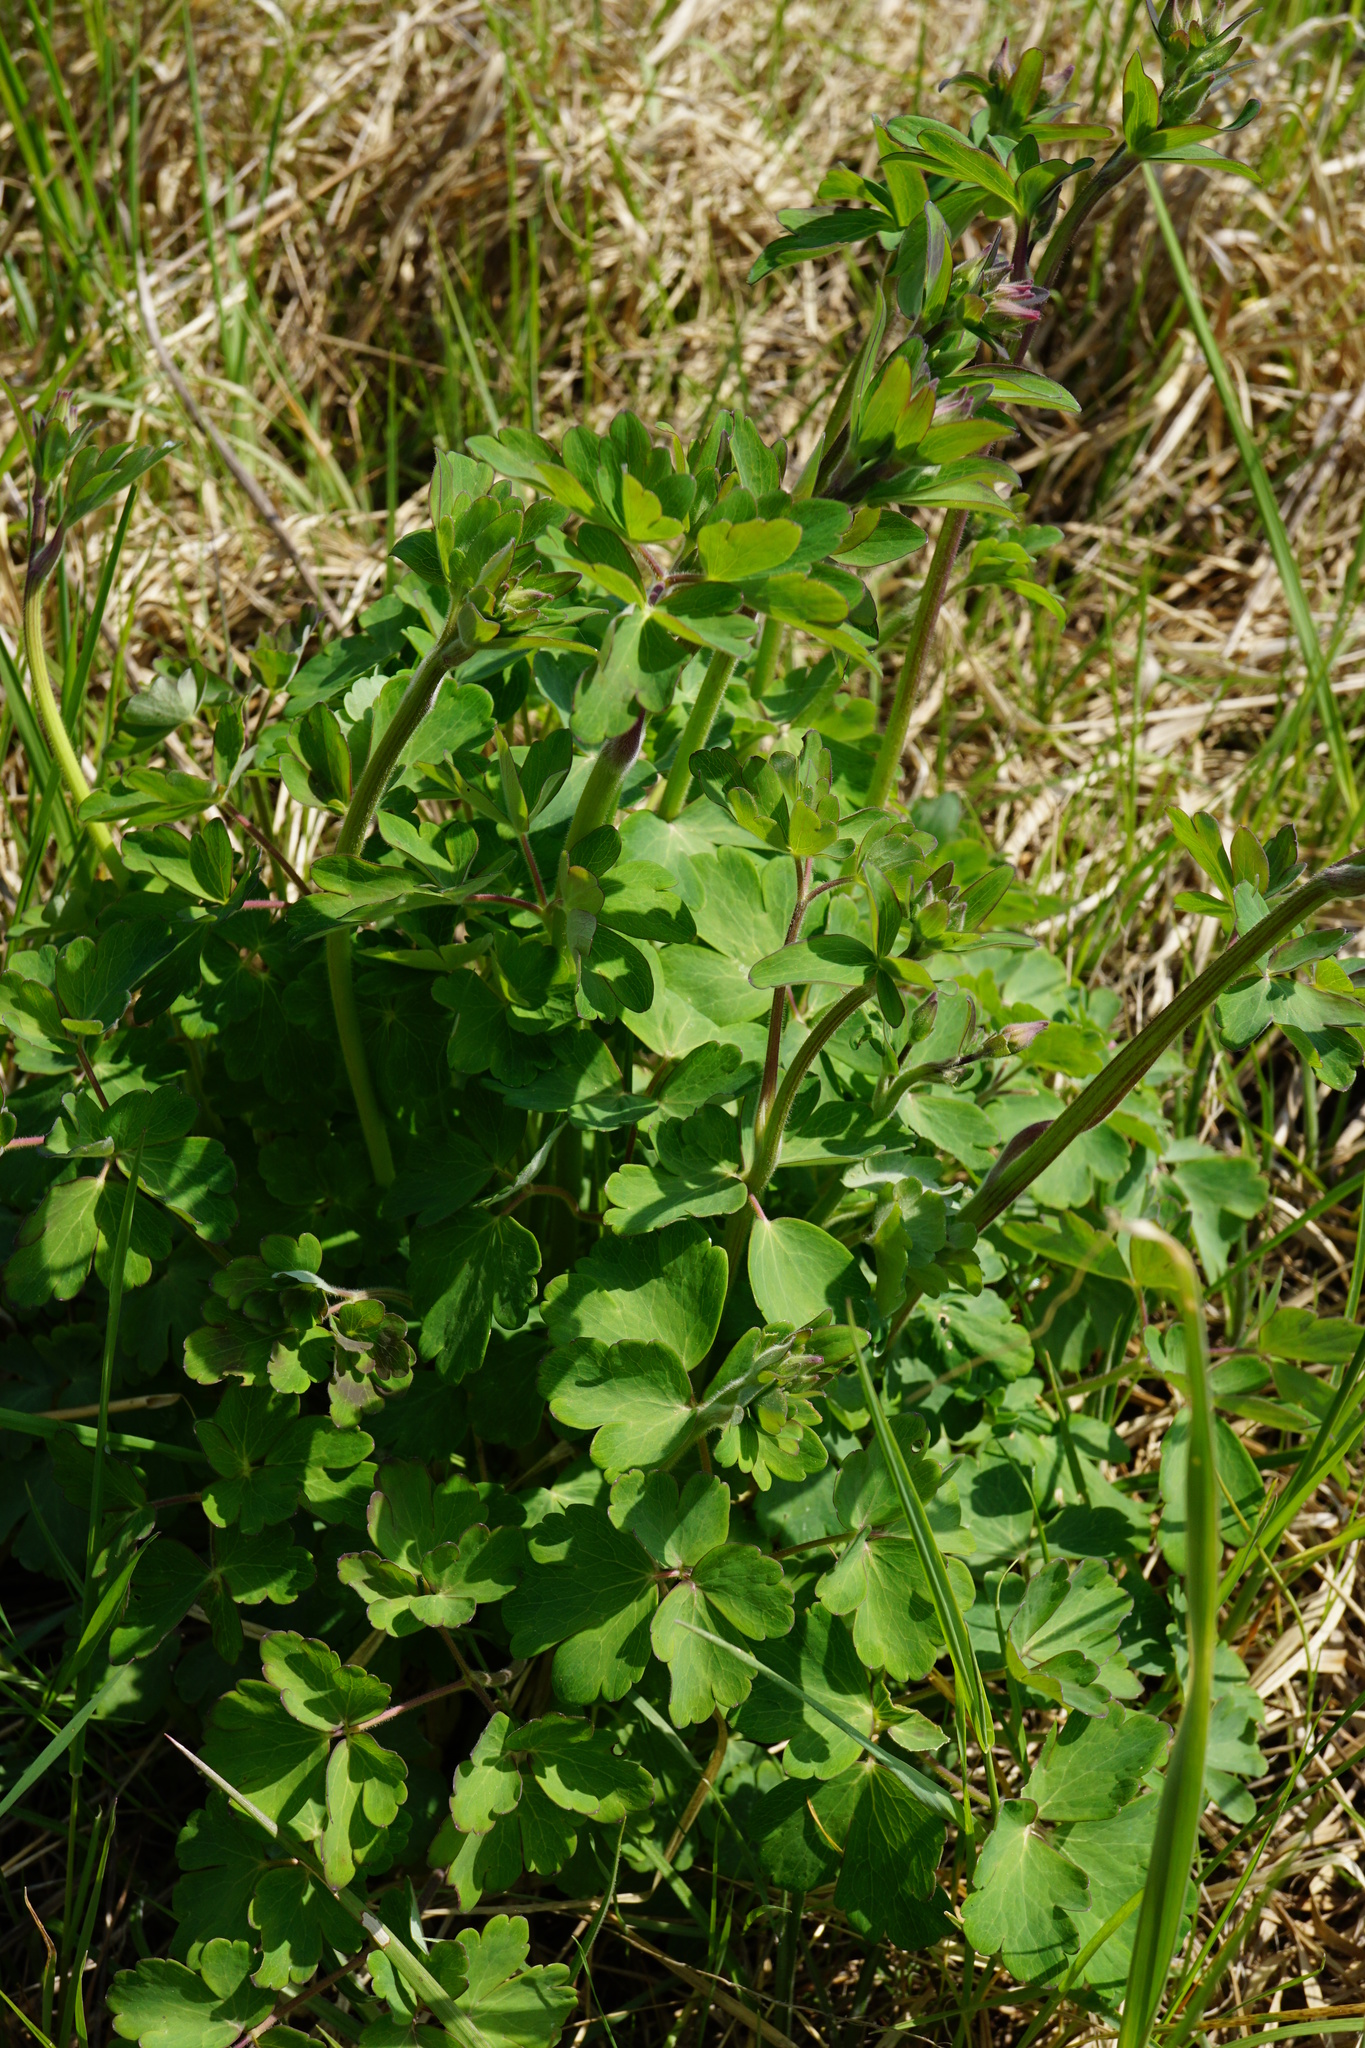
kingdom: Plantae
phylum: Tracheophyta
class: Magnoliopsida
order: Ranunculales
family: Ranunculaceae
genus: Aquilegia
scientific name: Aquilegia vulgaris
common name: Columbine
